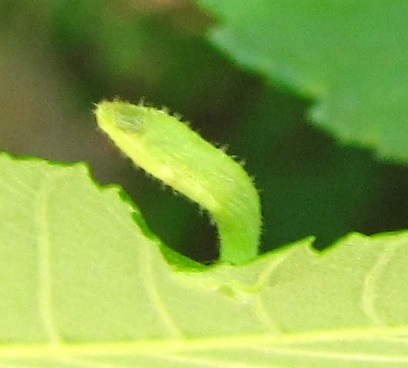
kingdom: Animalia
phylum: Arthropoda
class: Arachnida
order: Trombidiformes
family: Eriophyidae
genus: Aceria
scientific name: Aceria
